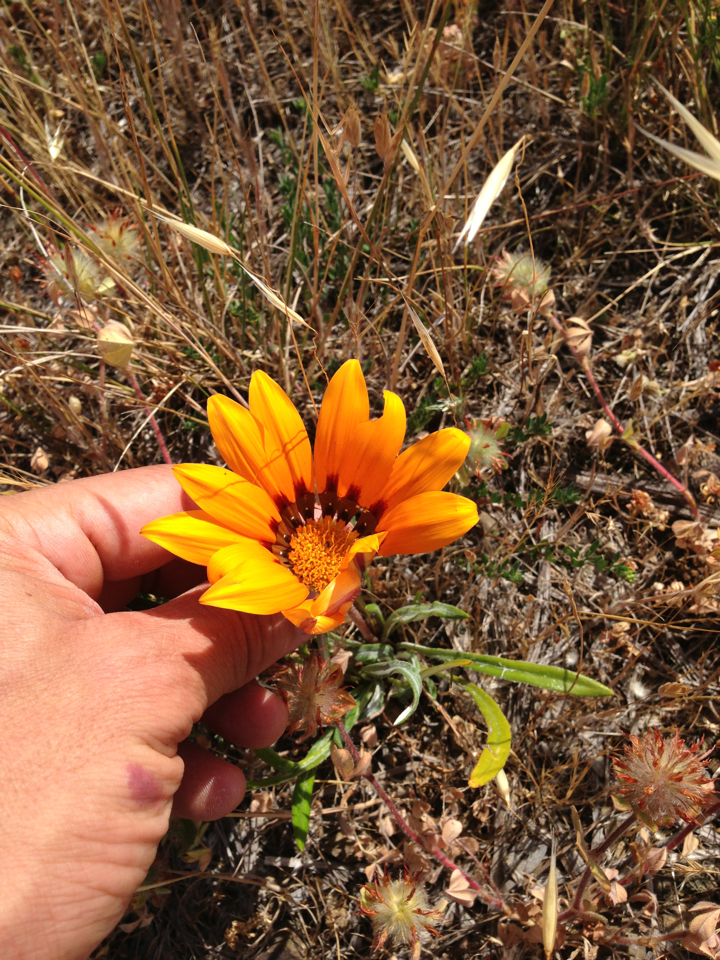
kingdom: Plantae
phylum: Tracheophyta
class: Magnoliopsida
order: Asterales
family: Asteraceae
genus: Gazania
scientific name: Gazania linearis
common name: Treasureflower
